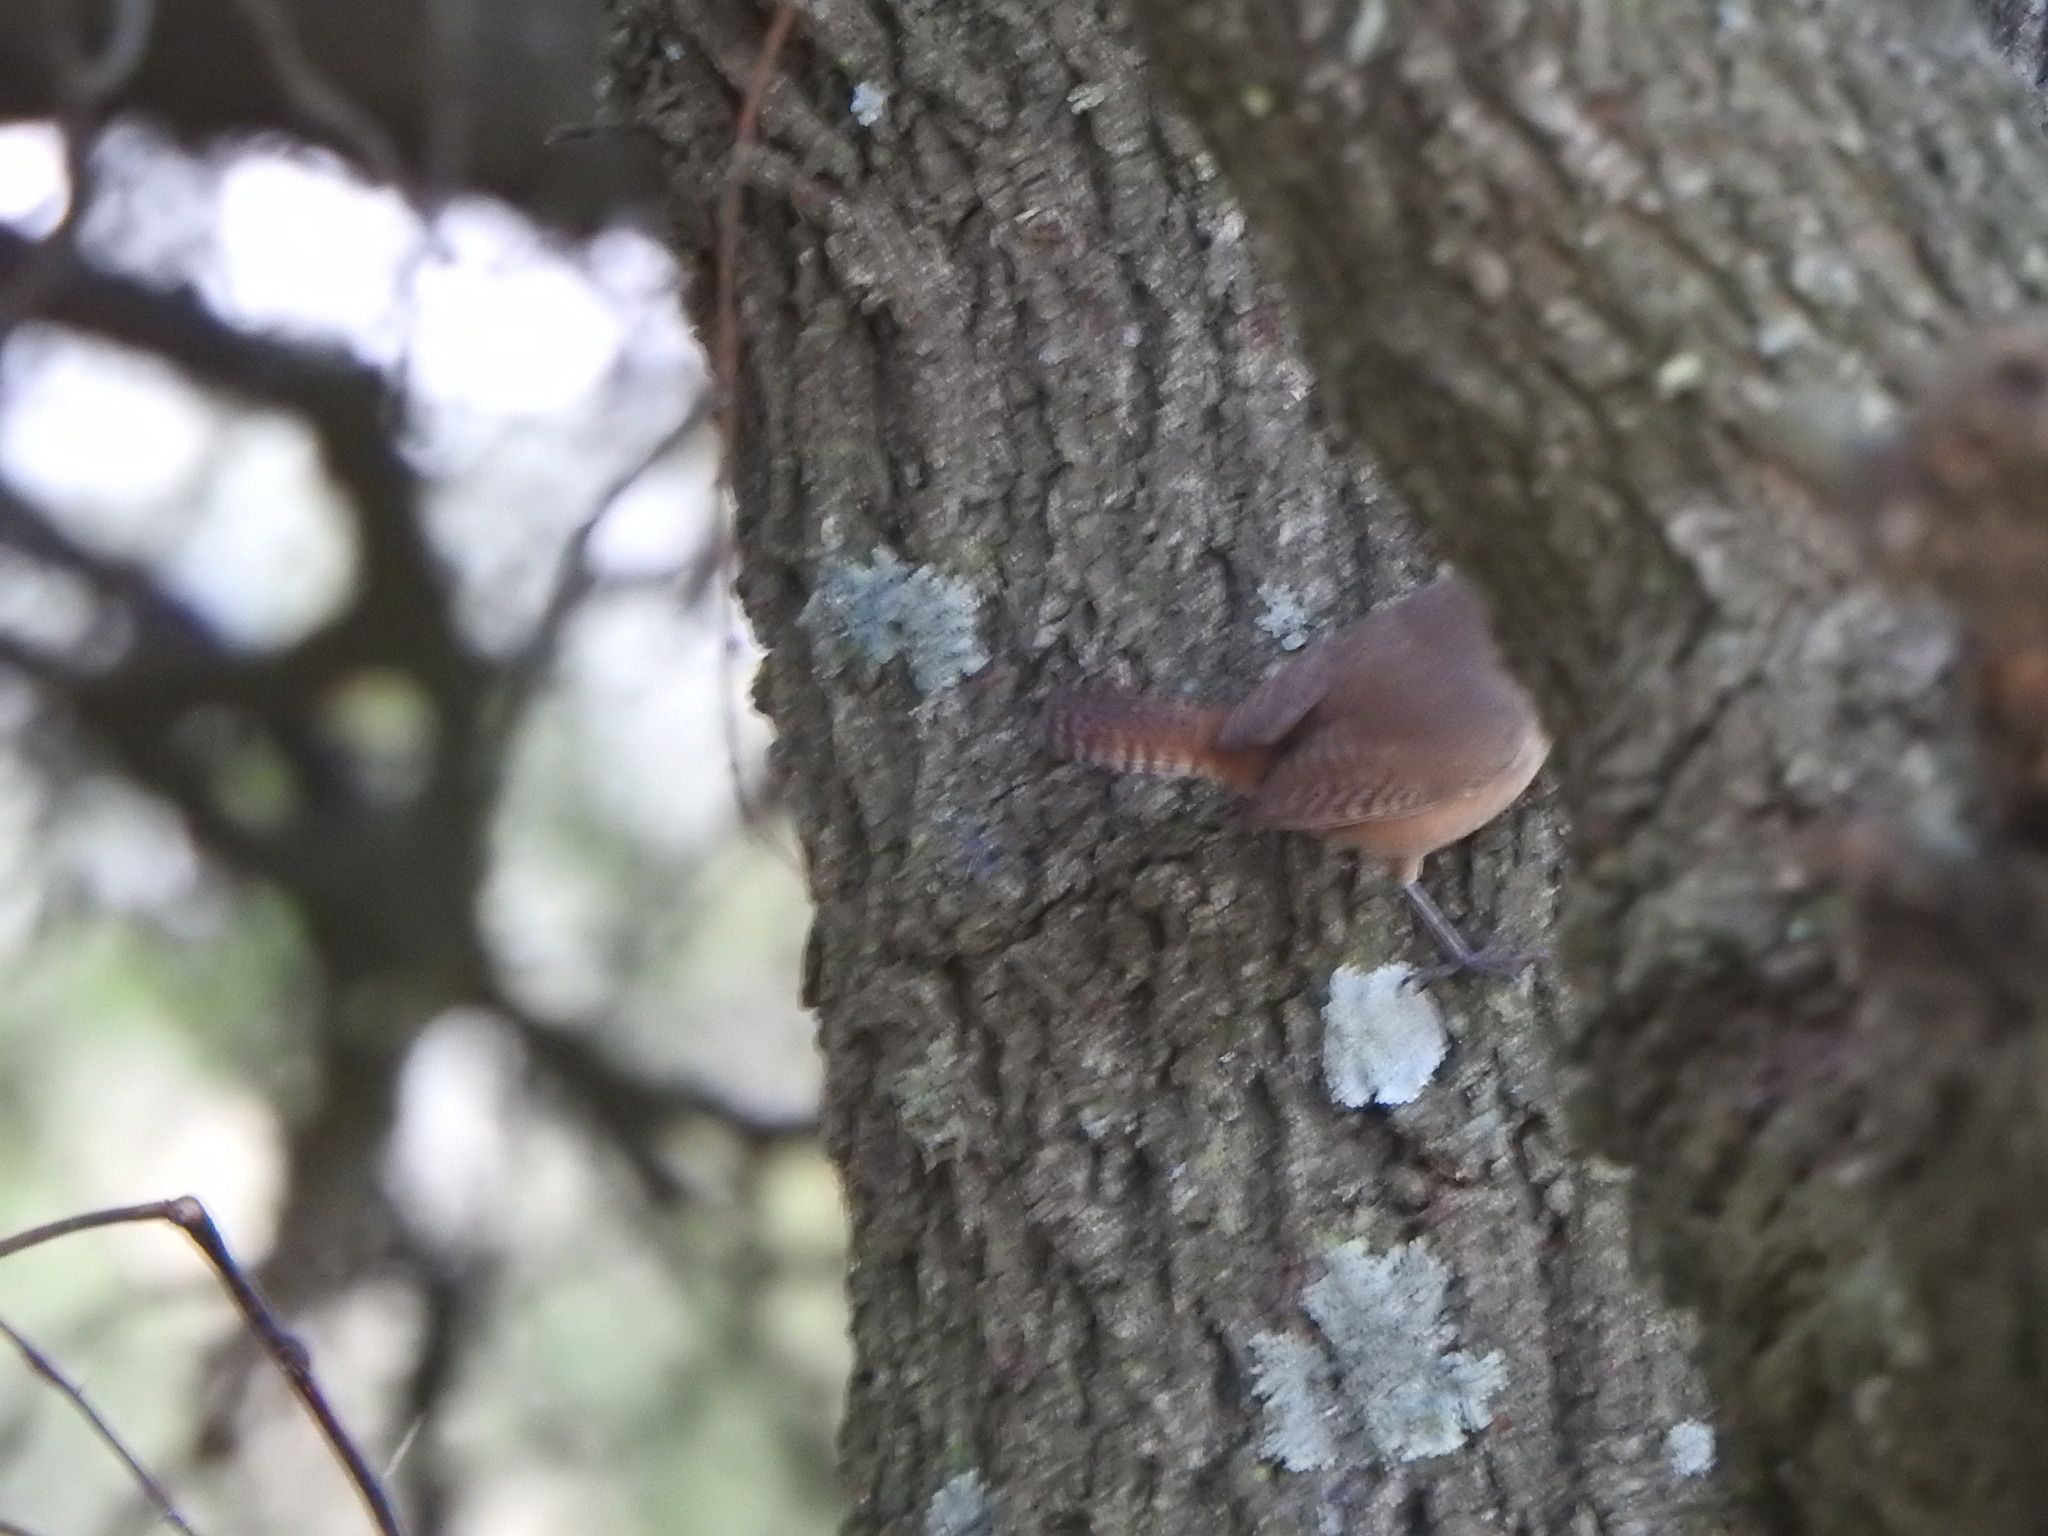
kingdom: Animalia
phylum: Chordata
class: Aves
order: Passeriformes
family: Troglodytidae
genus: Troglodytes
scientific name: Troglodytes aedon
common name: House wren
